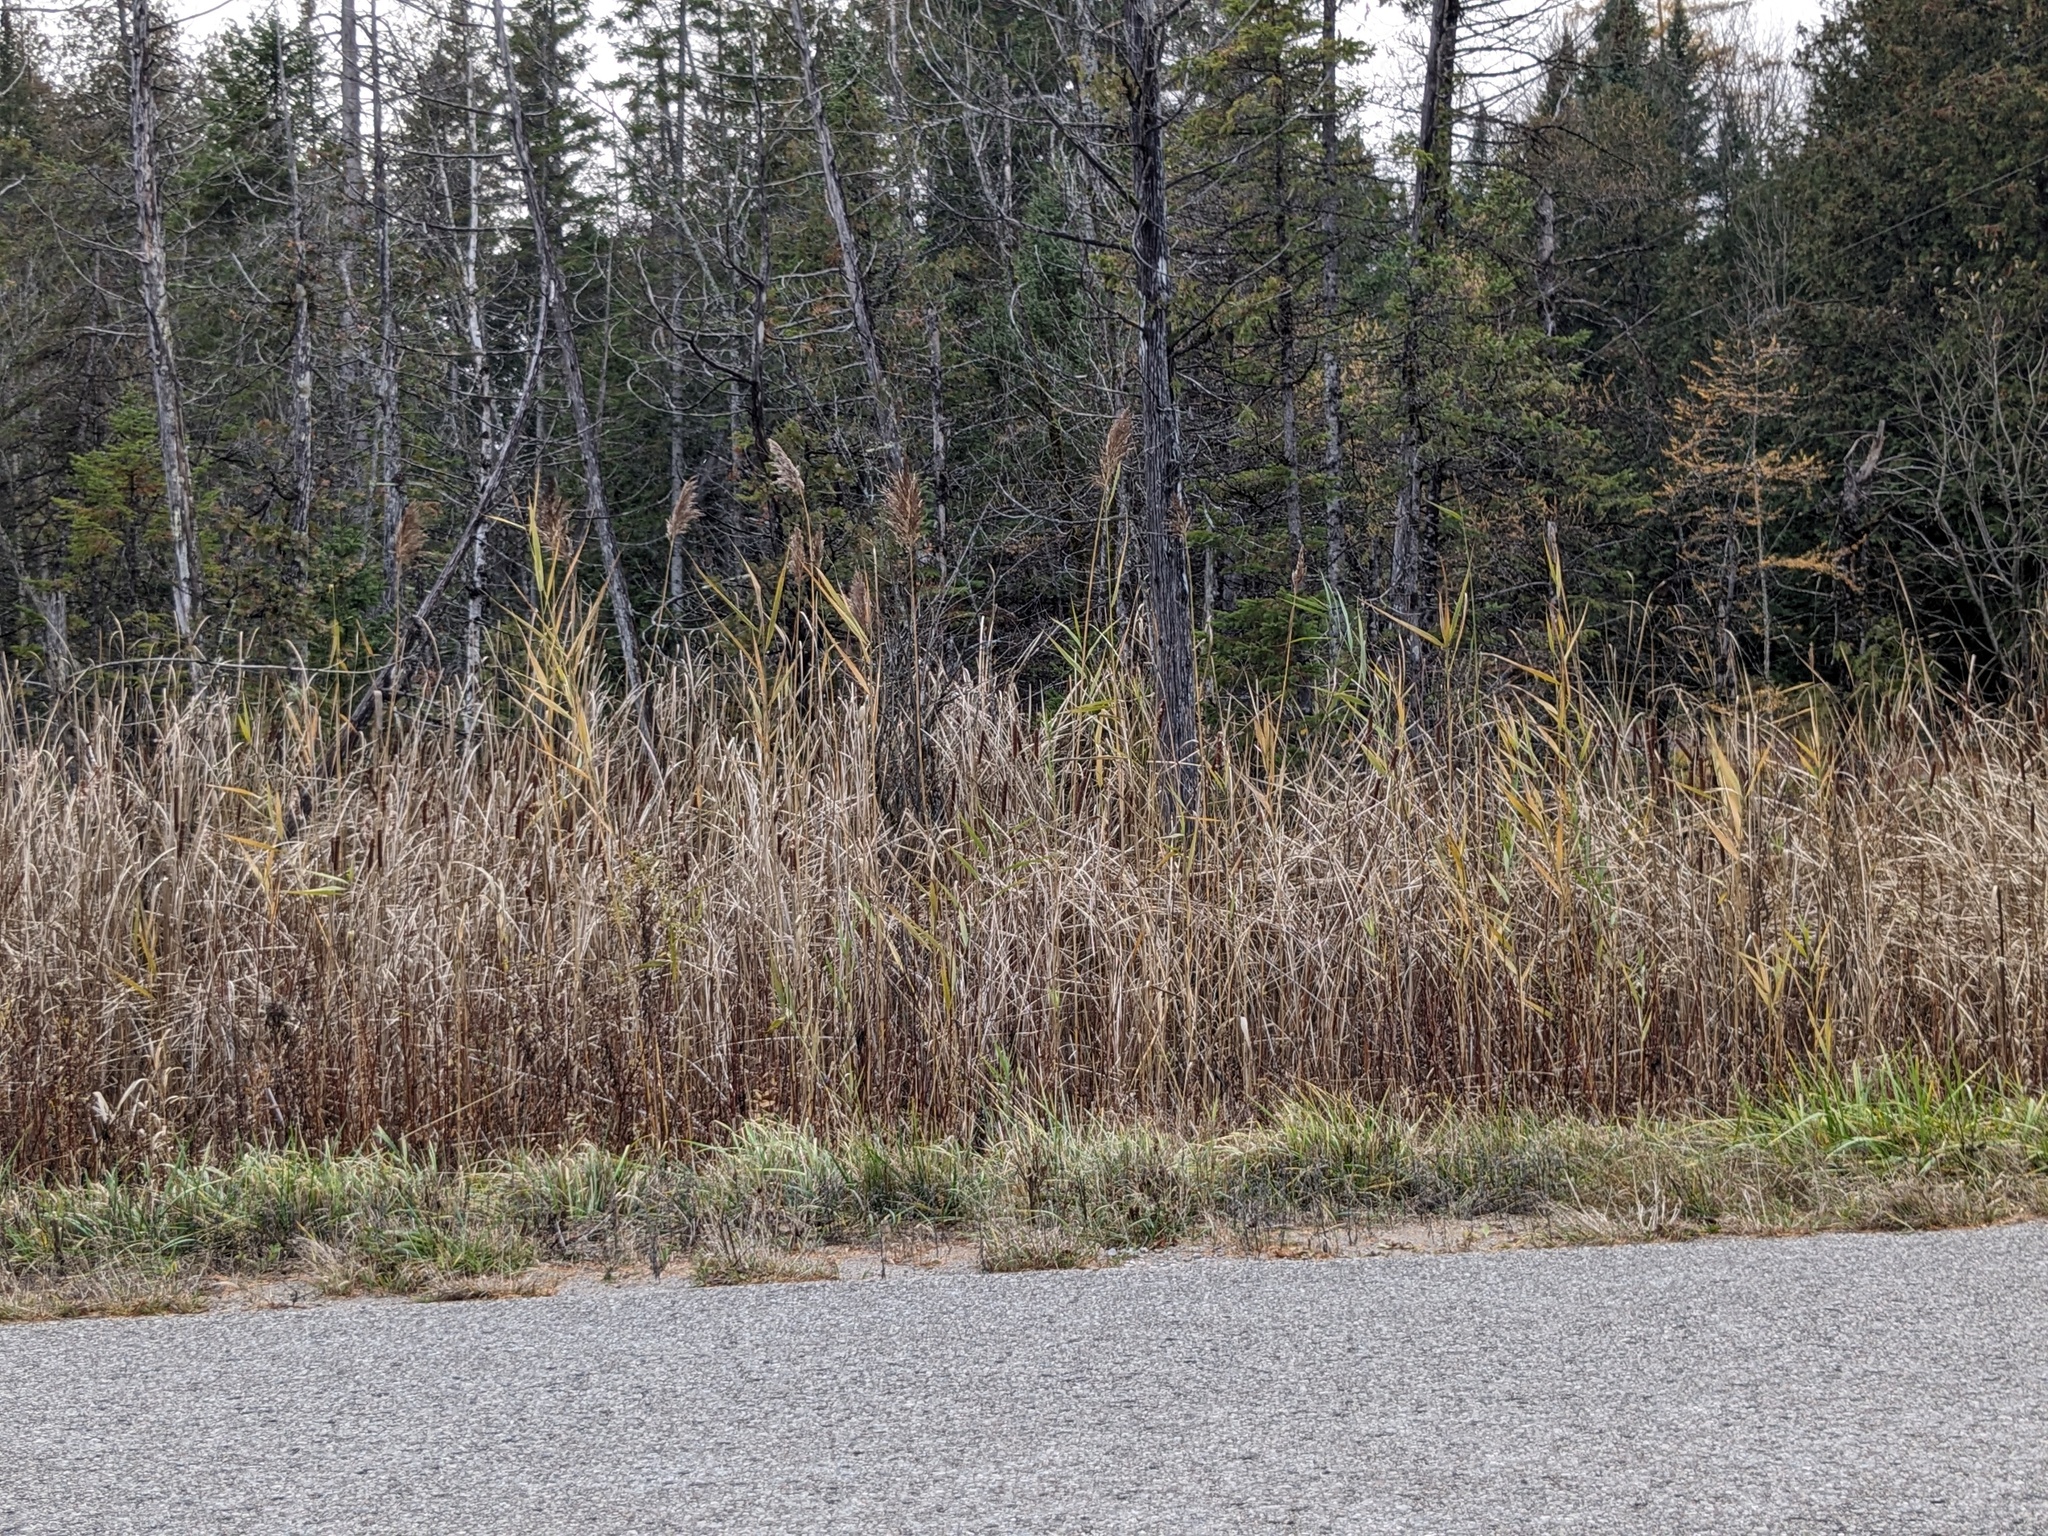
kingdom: Plantae
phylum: Tracheophyta
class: Liliopsida
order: Poales
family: Poaceae
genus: Phragmites
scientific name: Phragmites australis
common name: Common reed
